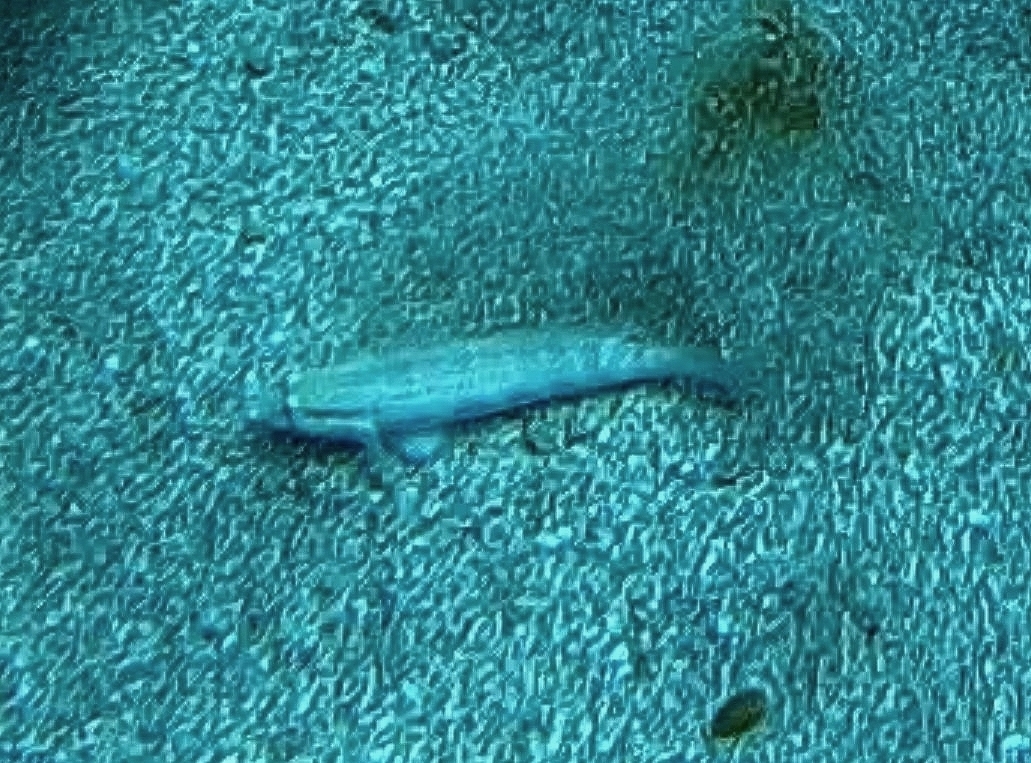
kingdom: Animalia
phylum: Chordata
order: Perciformes
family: Gobiidae
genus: Gnatholepis
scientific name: Gnatholepis thompsoni
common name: Goldspot goby
